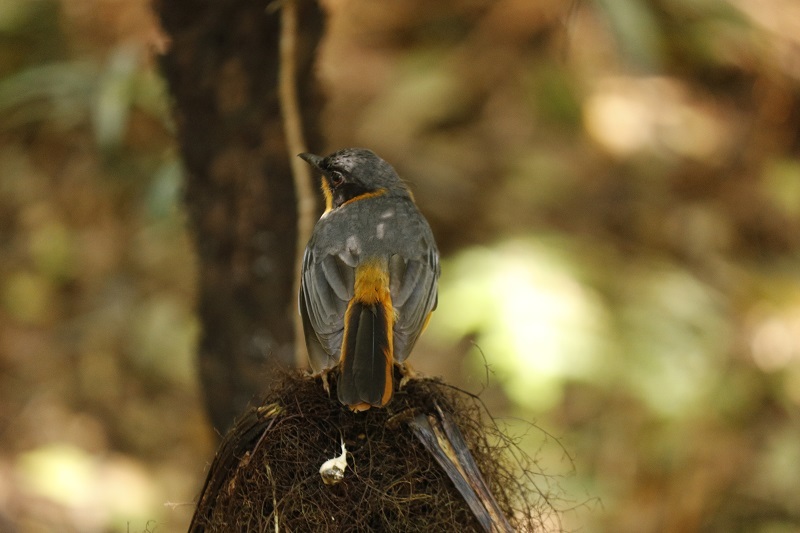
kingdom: Animalia
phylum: Chordata
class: Aves
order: Passeriformes
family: Muscicapidae
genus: Cossypha
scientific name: Cossypha dichroa
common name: Chorister robin-chat
